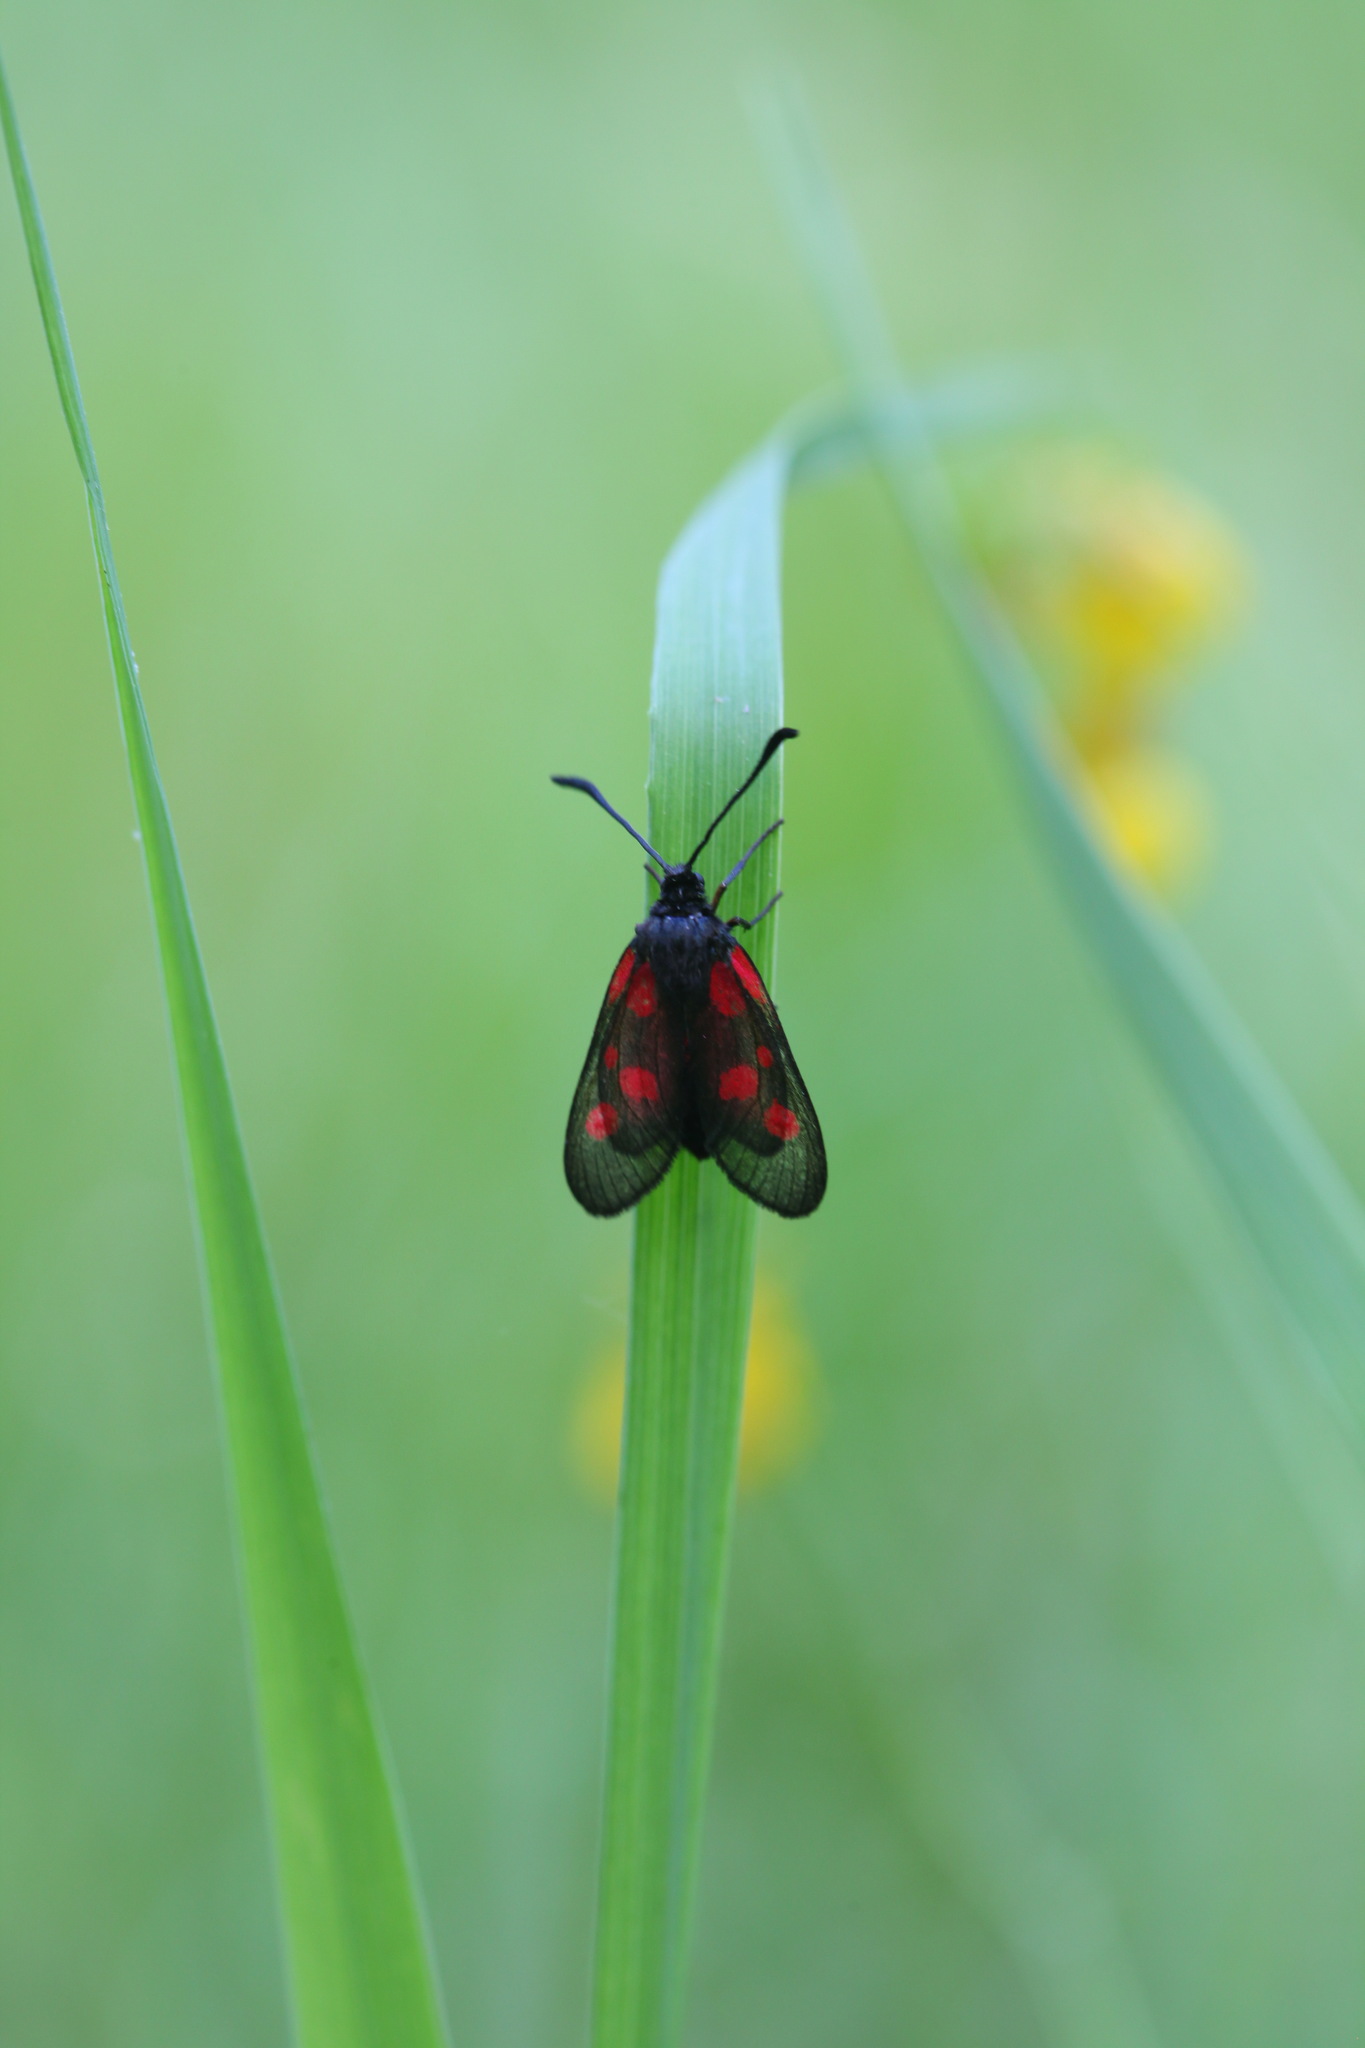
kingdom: Animalia
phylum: Arthropoda
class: Insecta
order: Lepidoptera
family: Zygaenidae
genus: Zygaena
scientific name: Zygaena viciae
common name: New forest burnet
